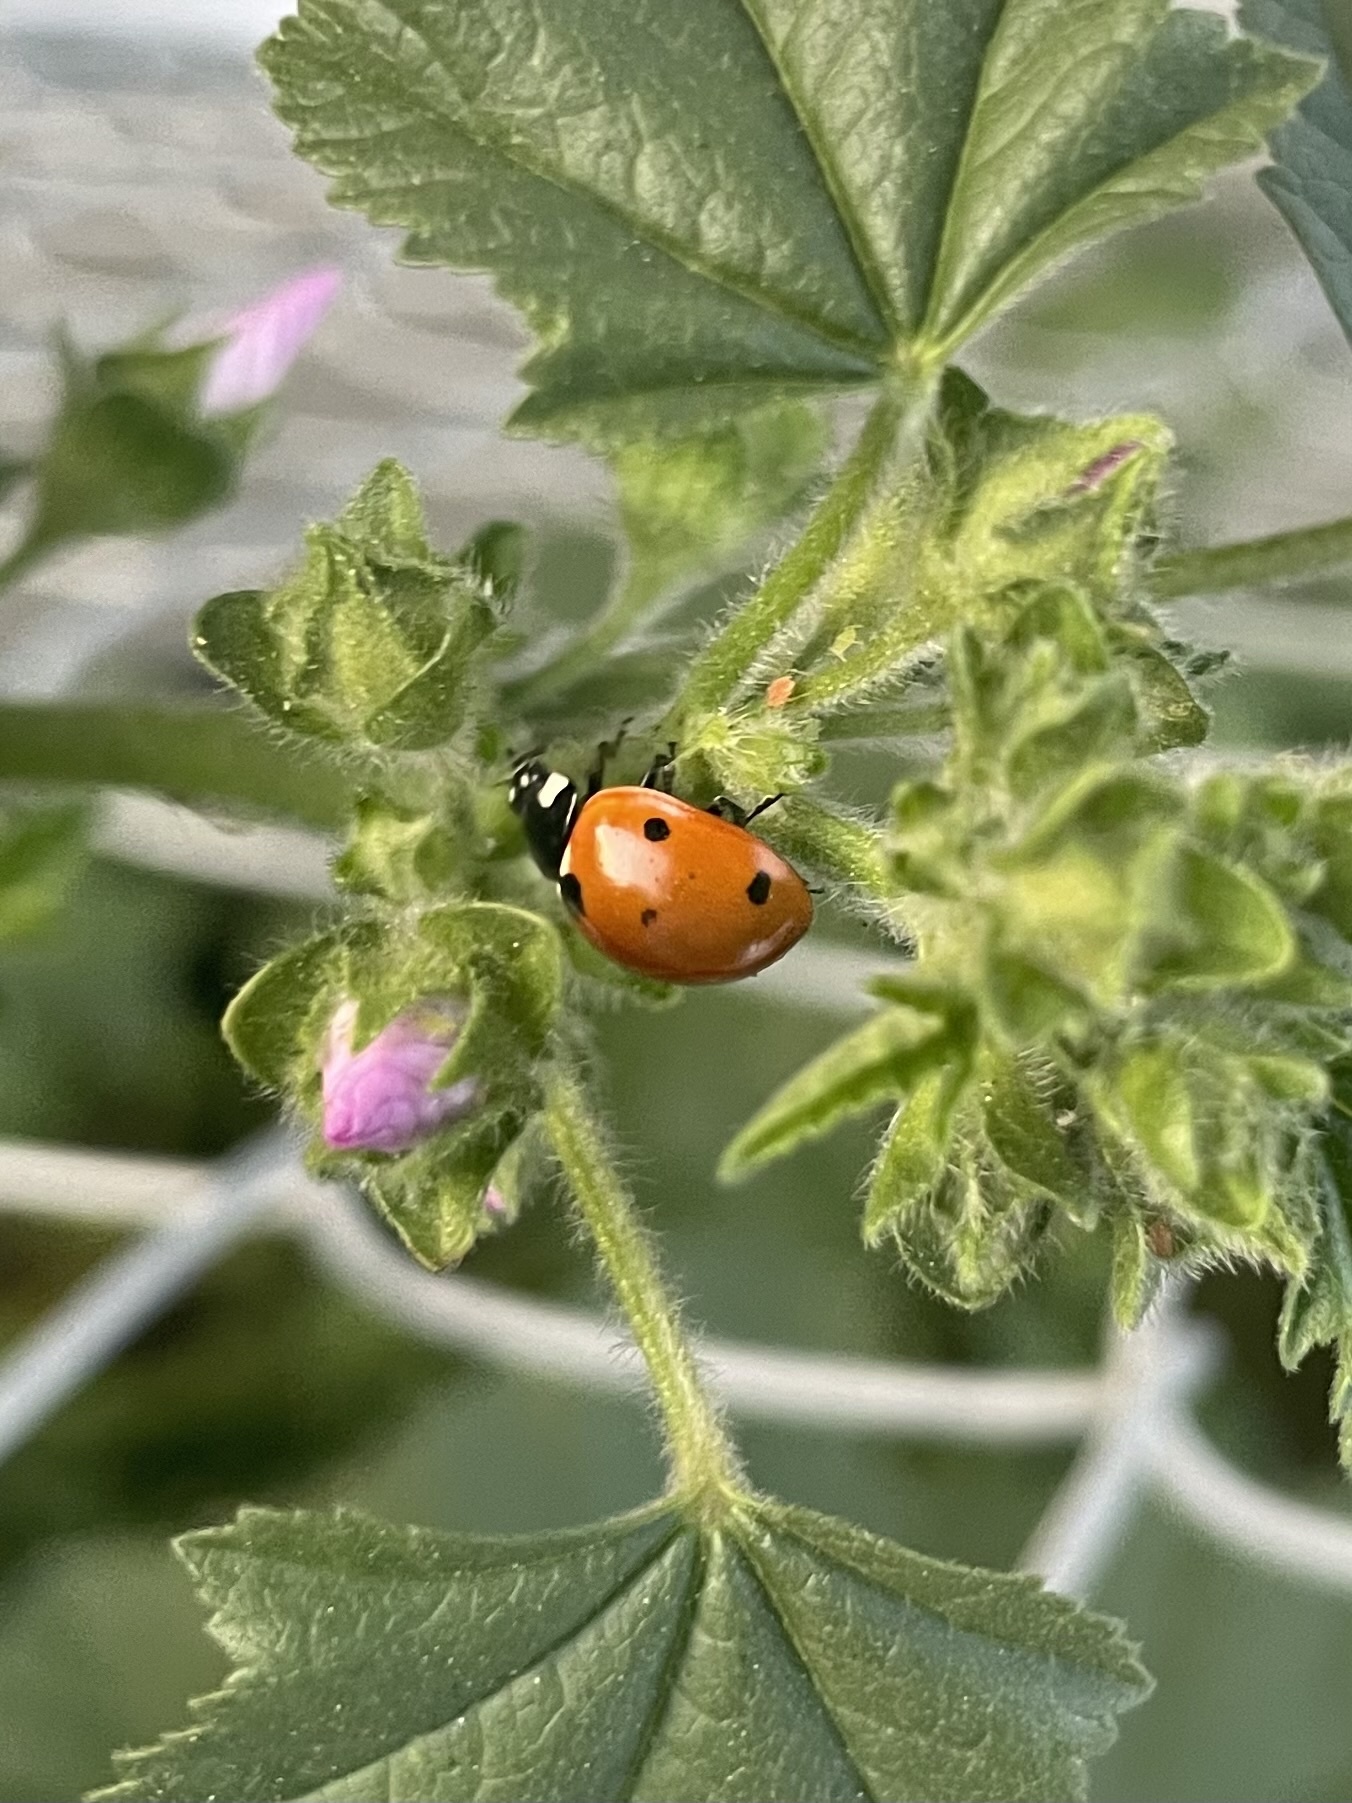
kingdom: Animalia
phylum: Arthropoda
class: Insecta
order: Coleoptera
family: Coccinellidae
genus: Coccinella
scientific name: Coccinella septempunctata
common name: Sevenspotted lady beetle
